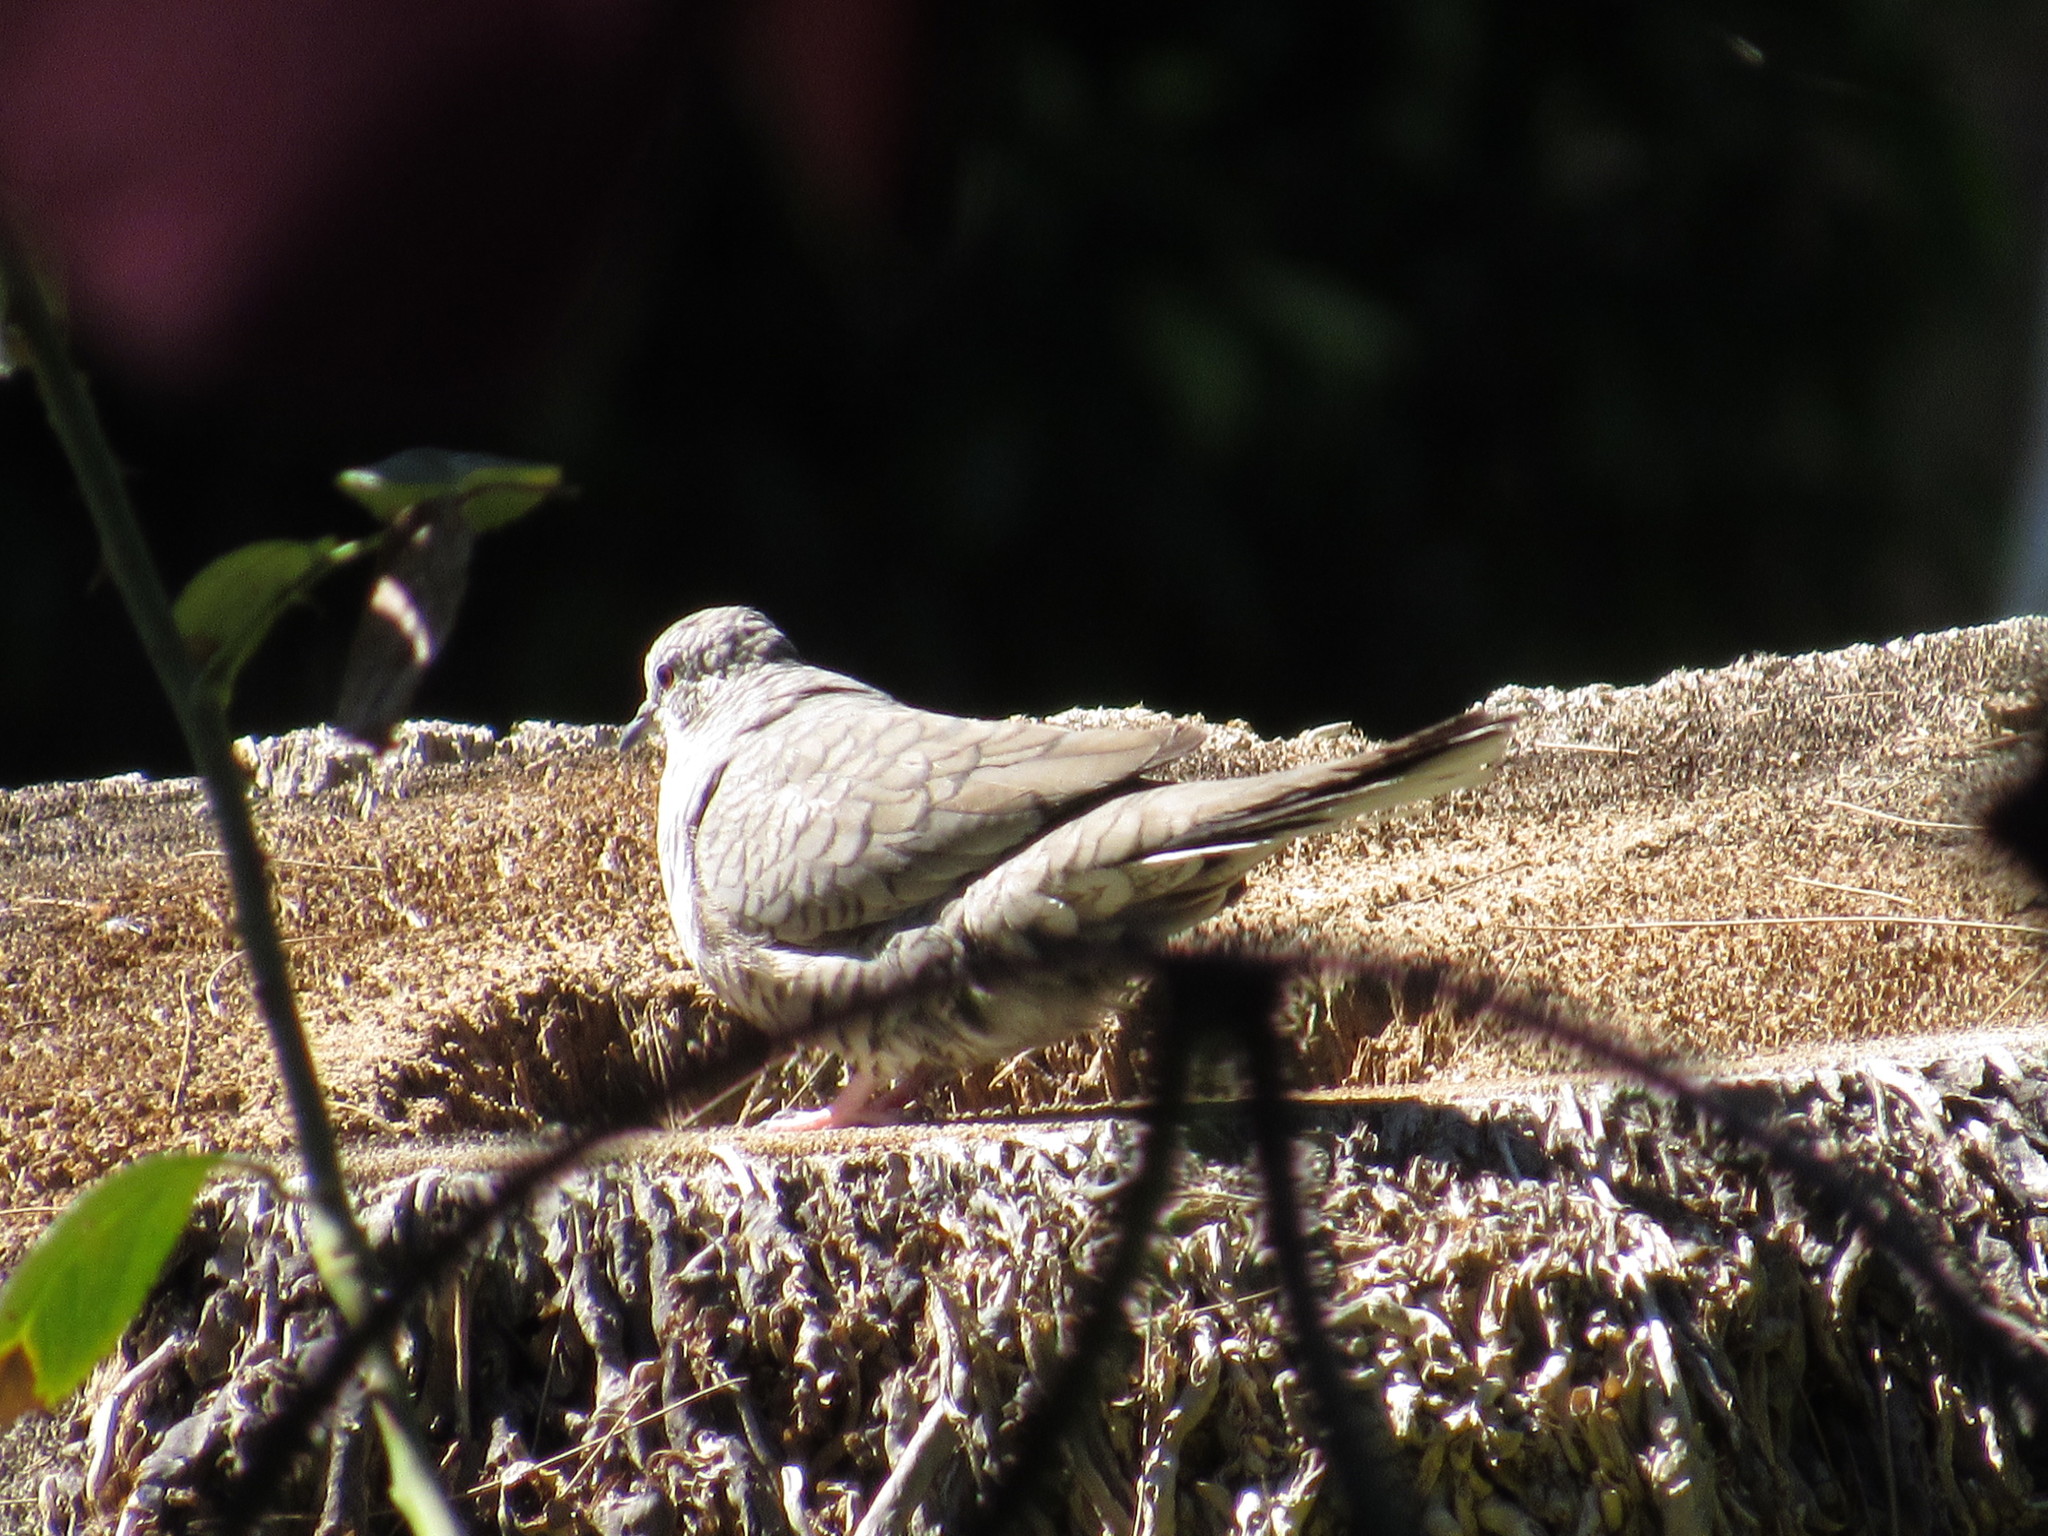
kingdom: Animalia
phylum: Chordata
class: Aves
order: Columbiformes
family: Columbidae
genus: Columbina
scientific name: Columbina inca
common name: Inca dove
